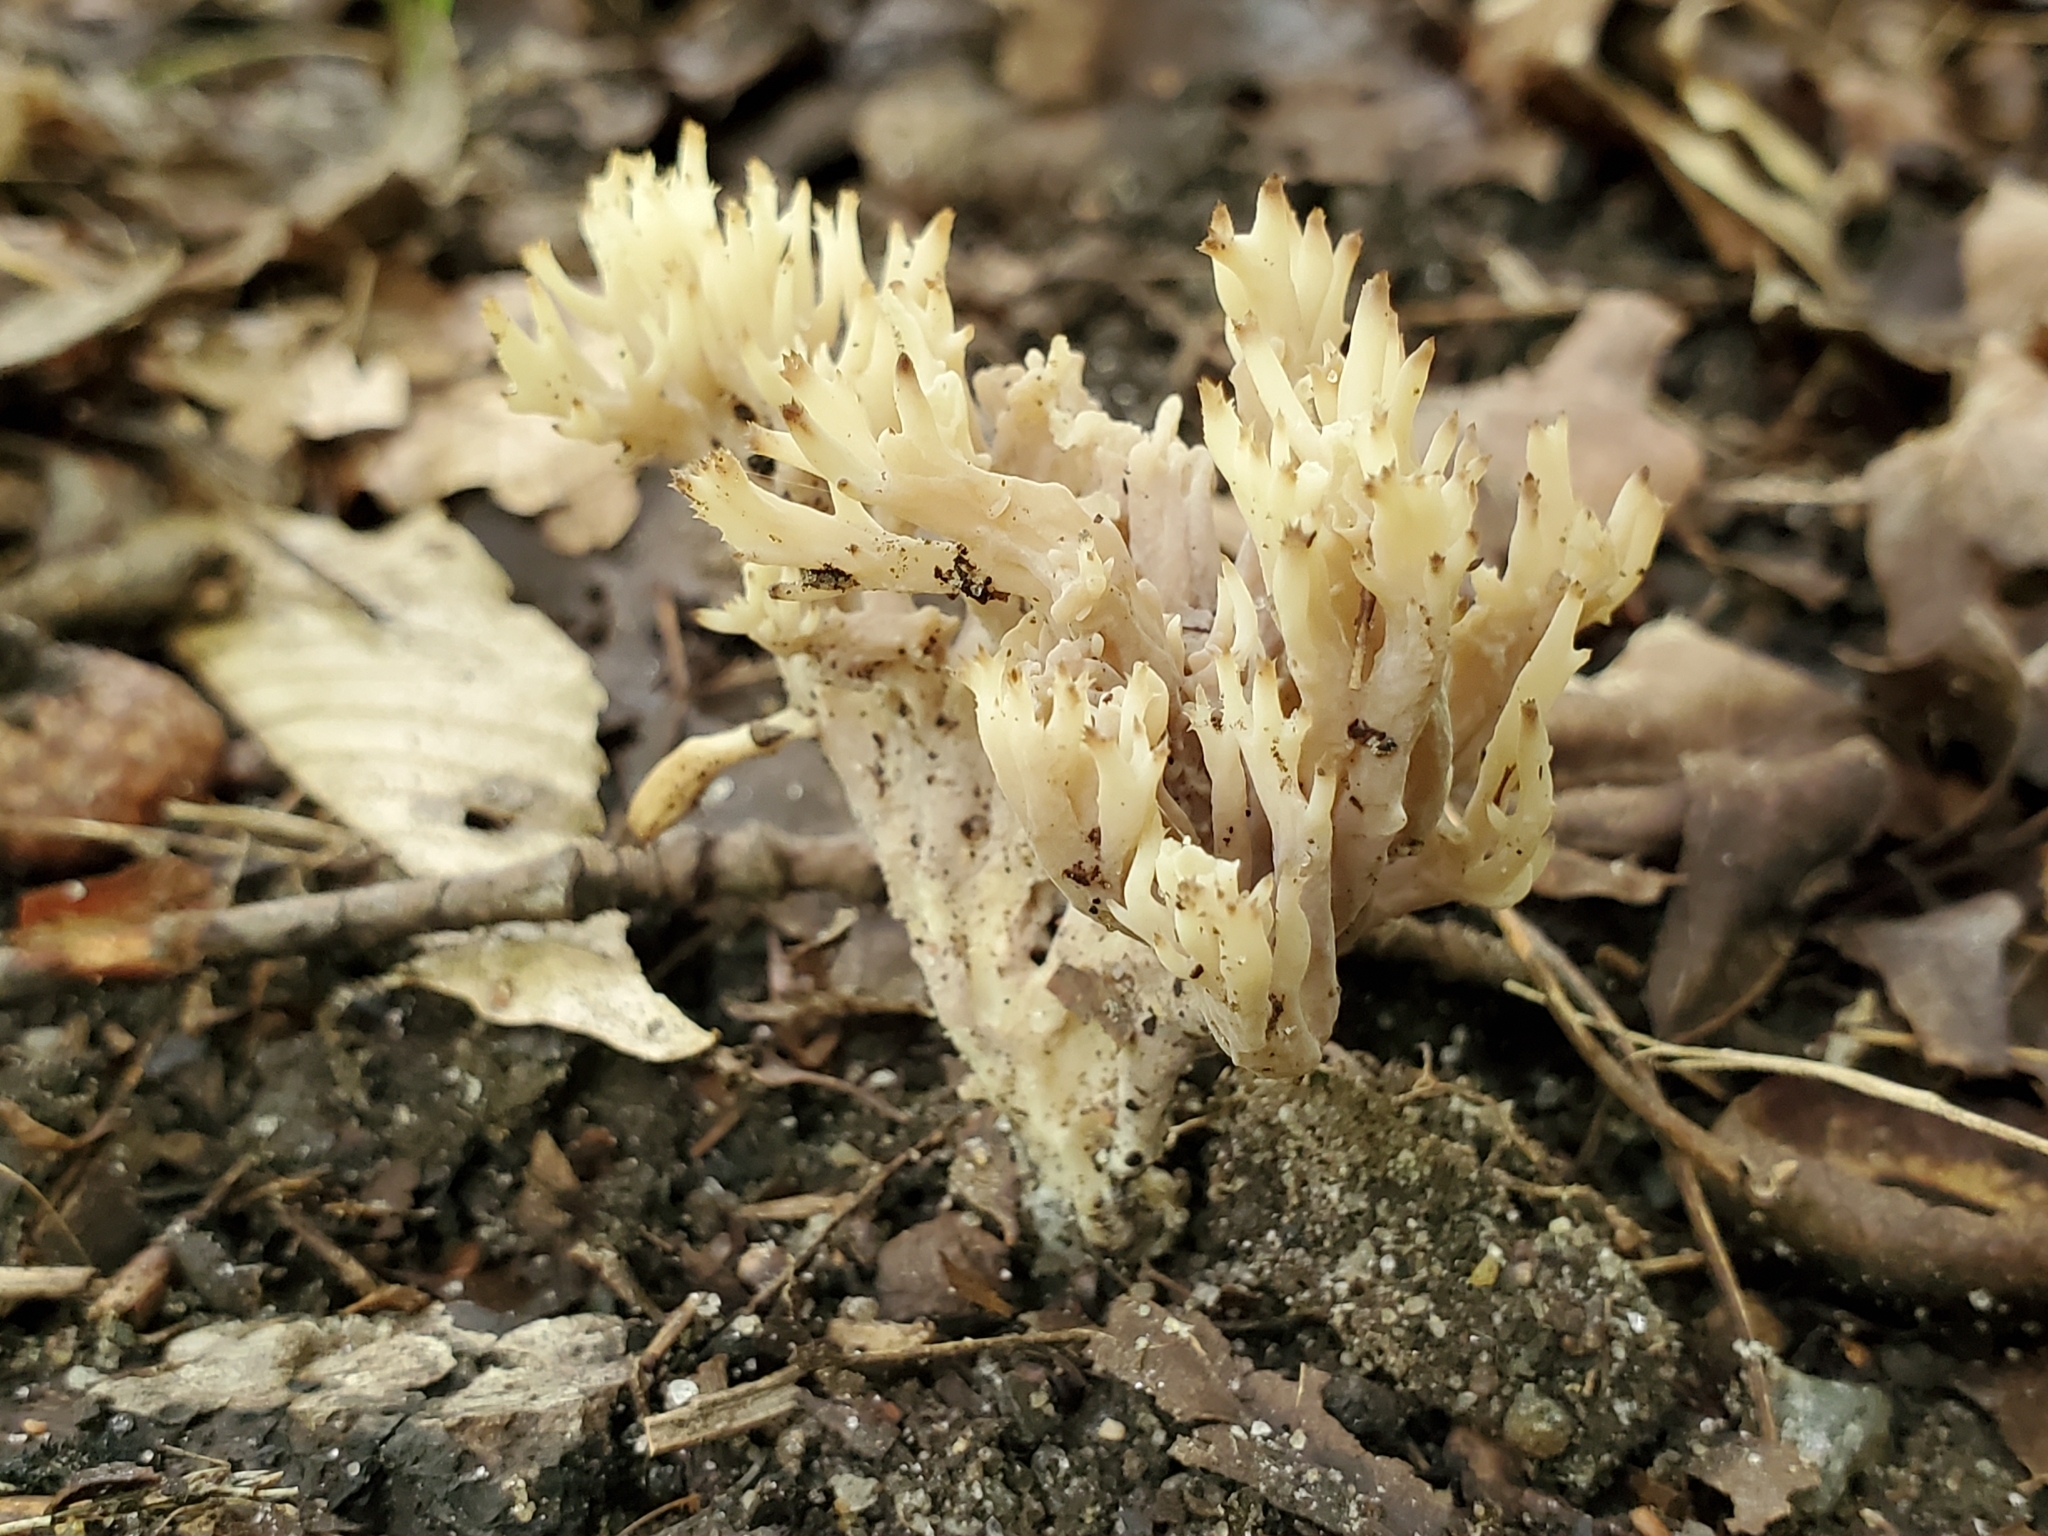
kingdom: Fungi
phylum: Basidiomycota
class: Agaricomycetes
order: Cantharellales
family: Hydnaceae
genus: Clavulina
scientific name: Clavulina coralloides
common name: Crested coral
